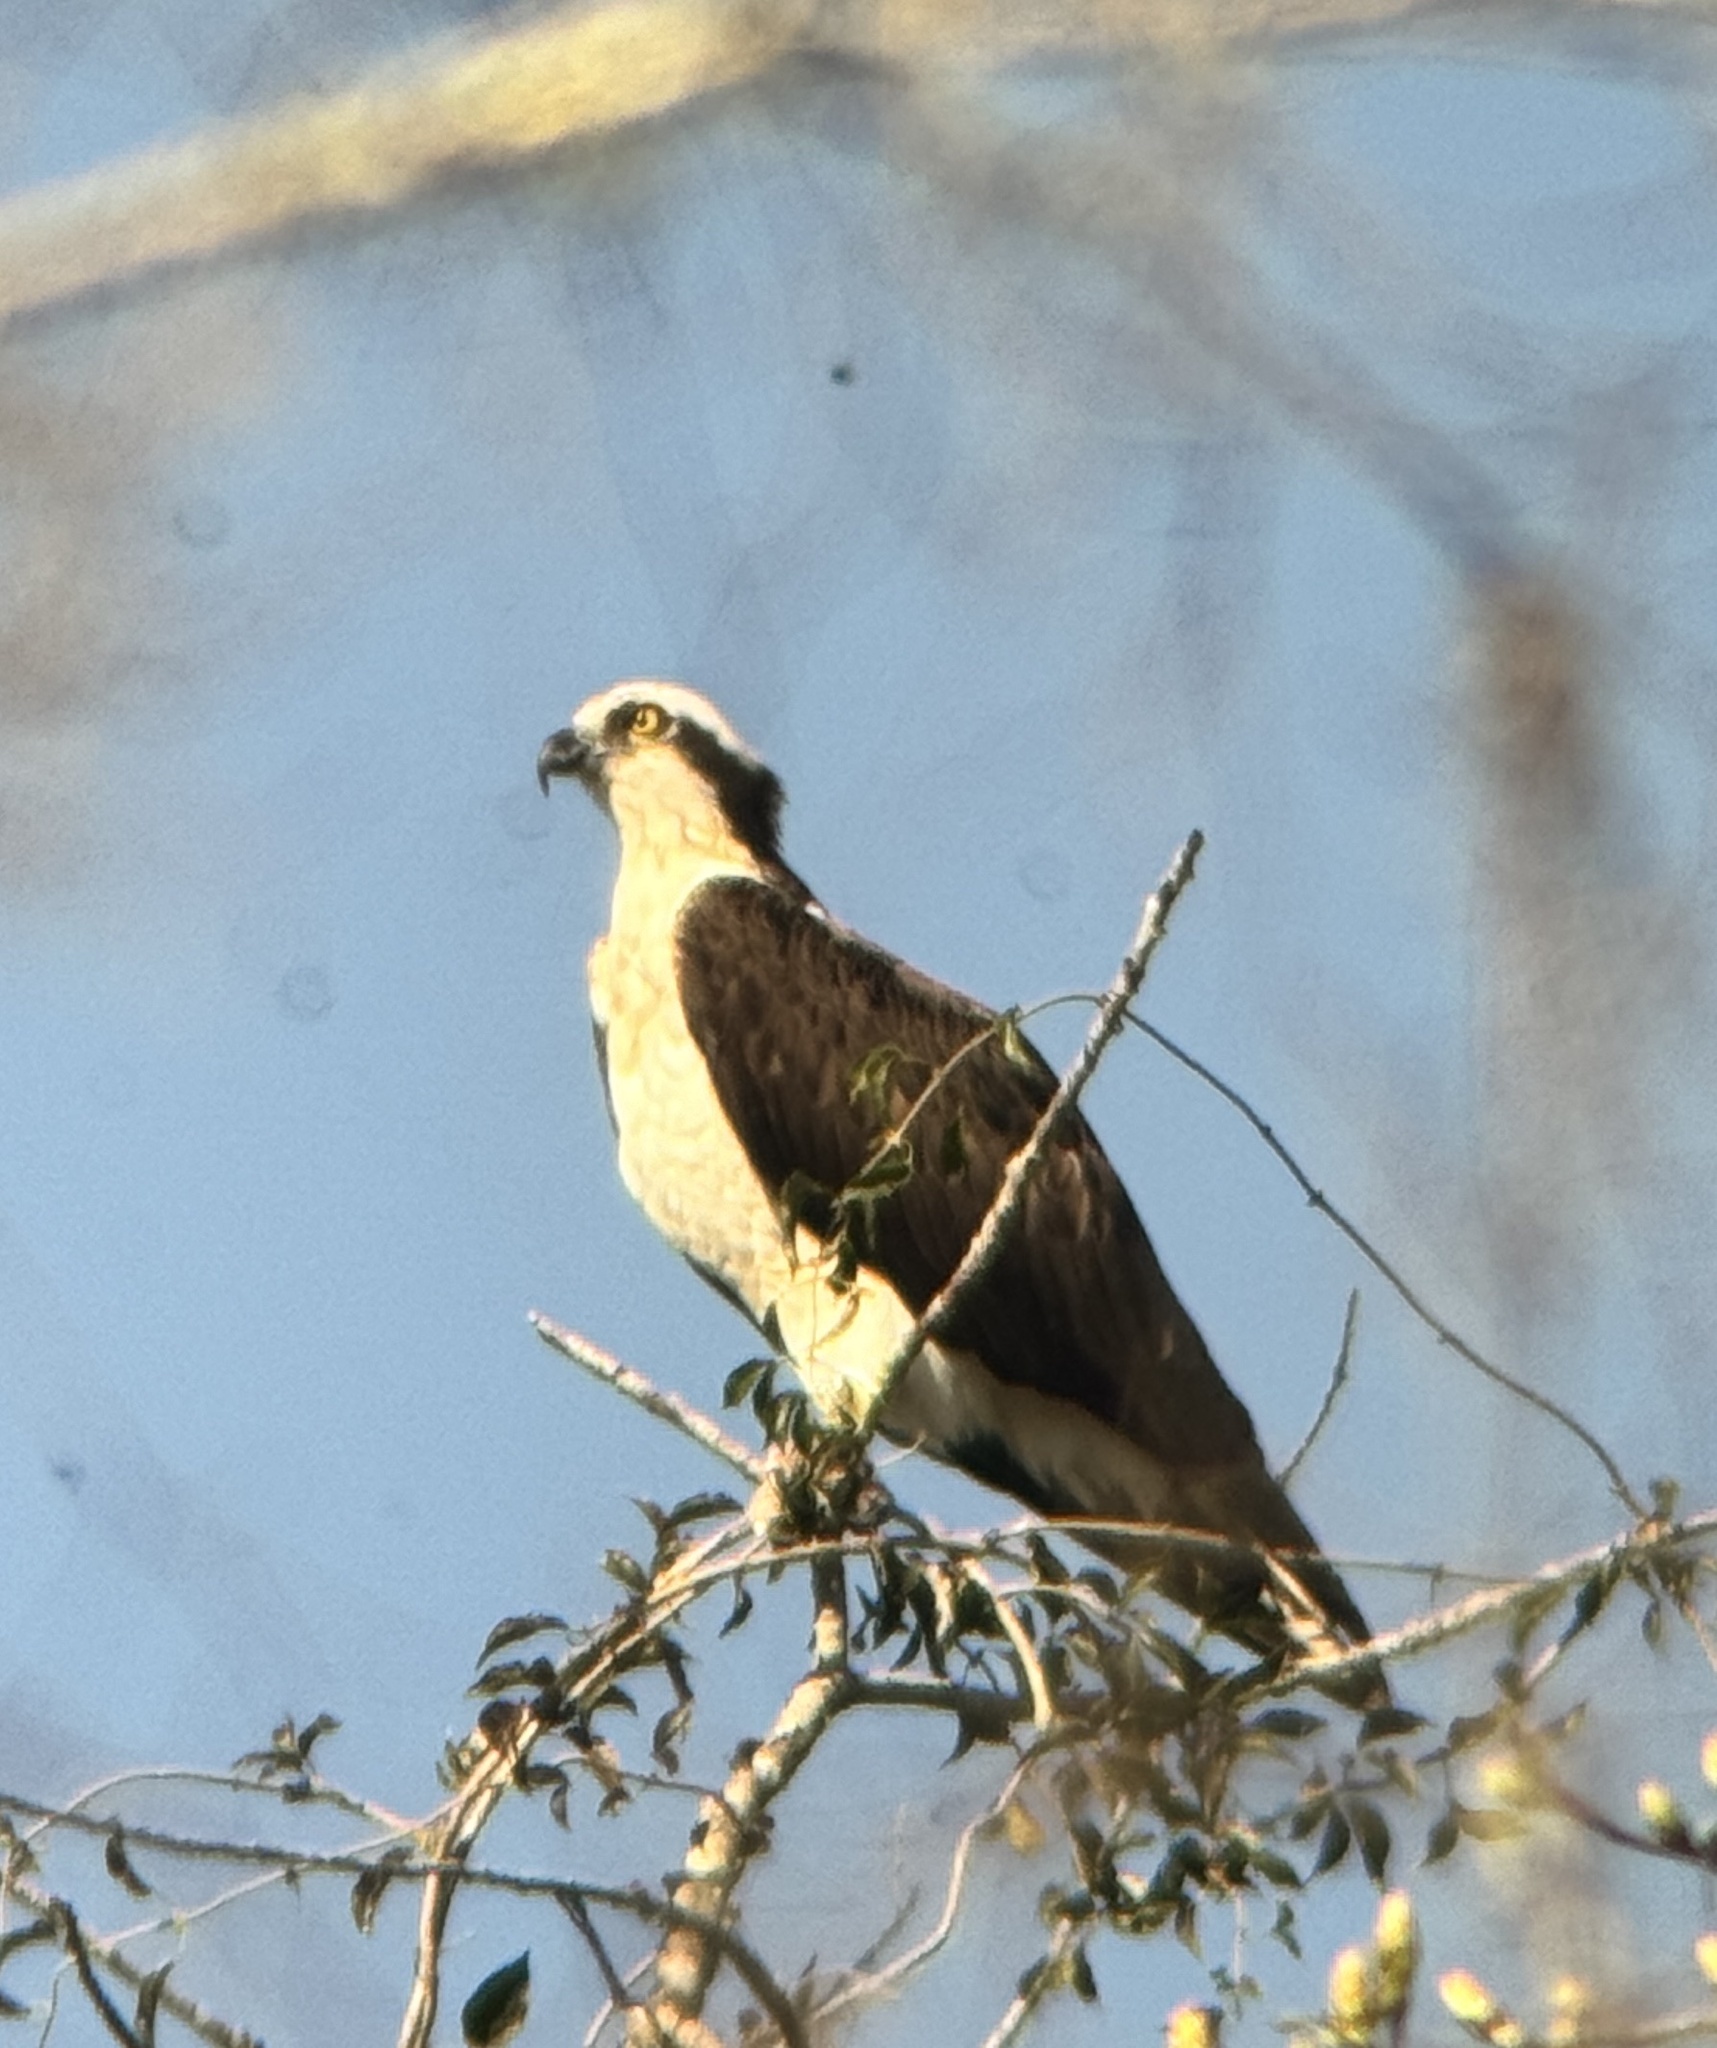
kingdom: Animalia
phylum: Chordata
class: Aves
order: Accipitriformes
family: Pandionidae
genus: Pandion
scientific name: Pandion haliaetus
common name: Osprey
